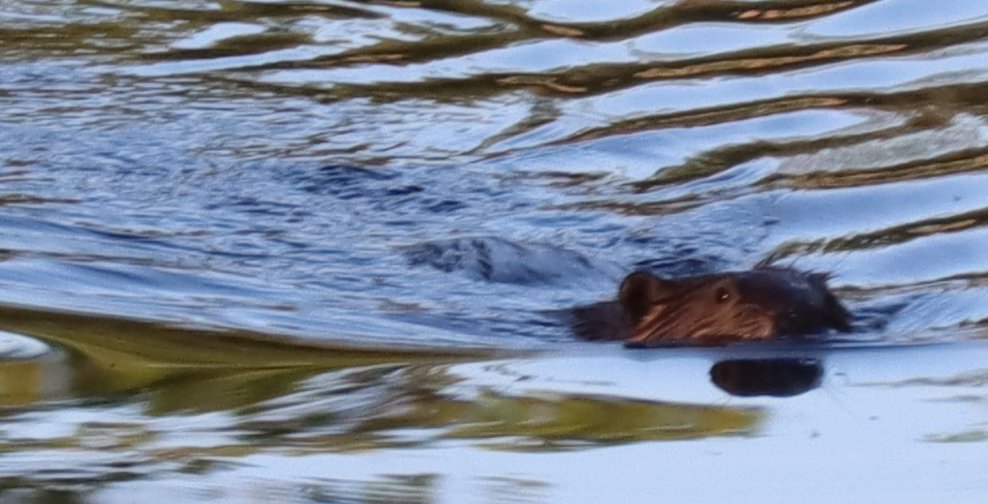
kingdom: Animalia
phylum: Chordata
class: Mammalia
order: Rodentia
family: Castoridae
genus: Castor
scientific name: Castor canadensis
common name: American beaver
